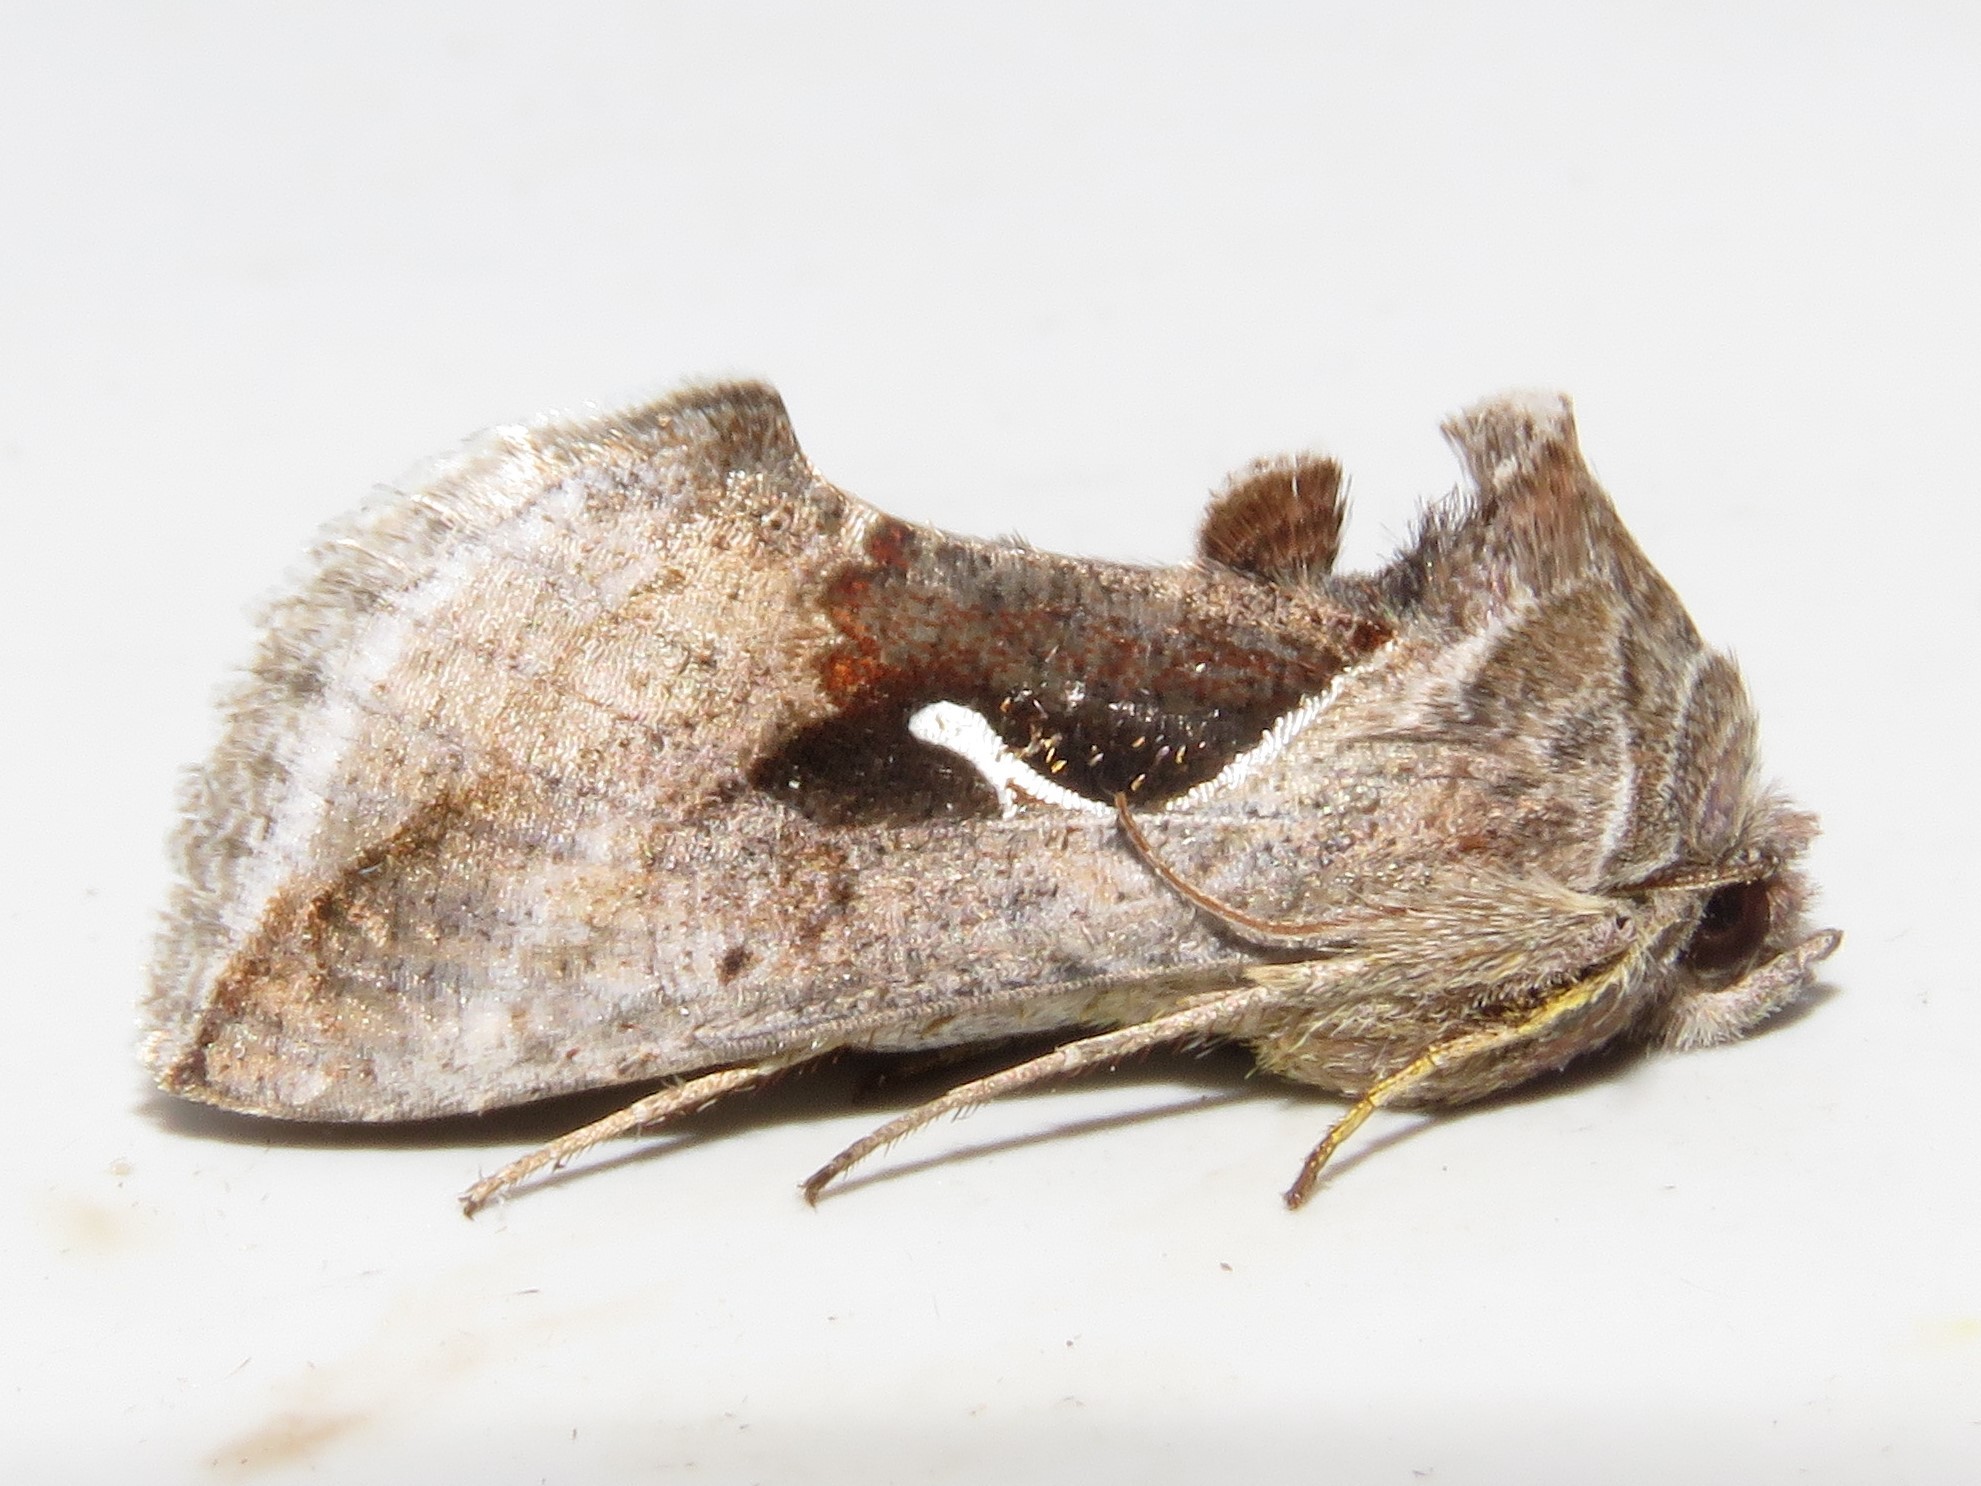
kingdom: Animalia
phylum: Arthropoda
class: Insecta
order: Lepidoptera
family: Noctuidae
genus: Anagrapha
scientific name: Anagrapha falcifera
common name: Celery looper
